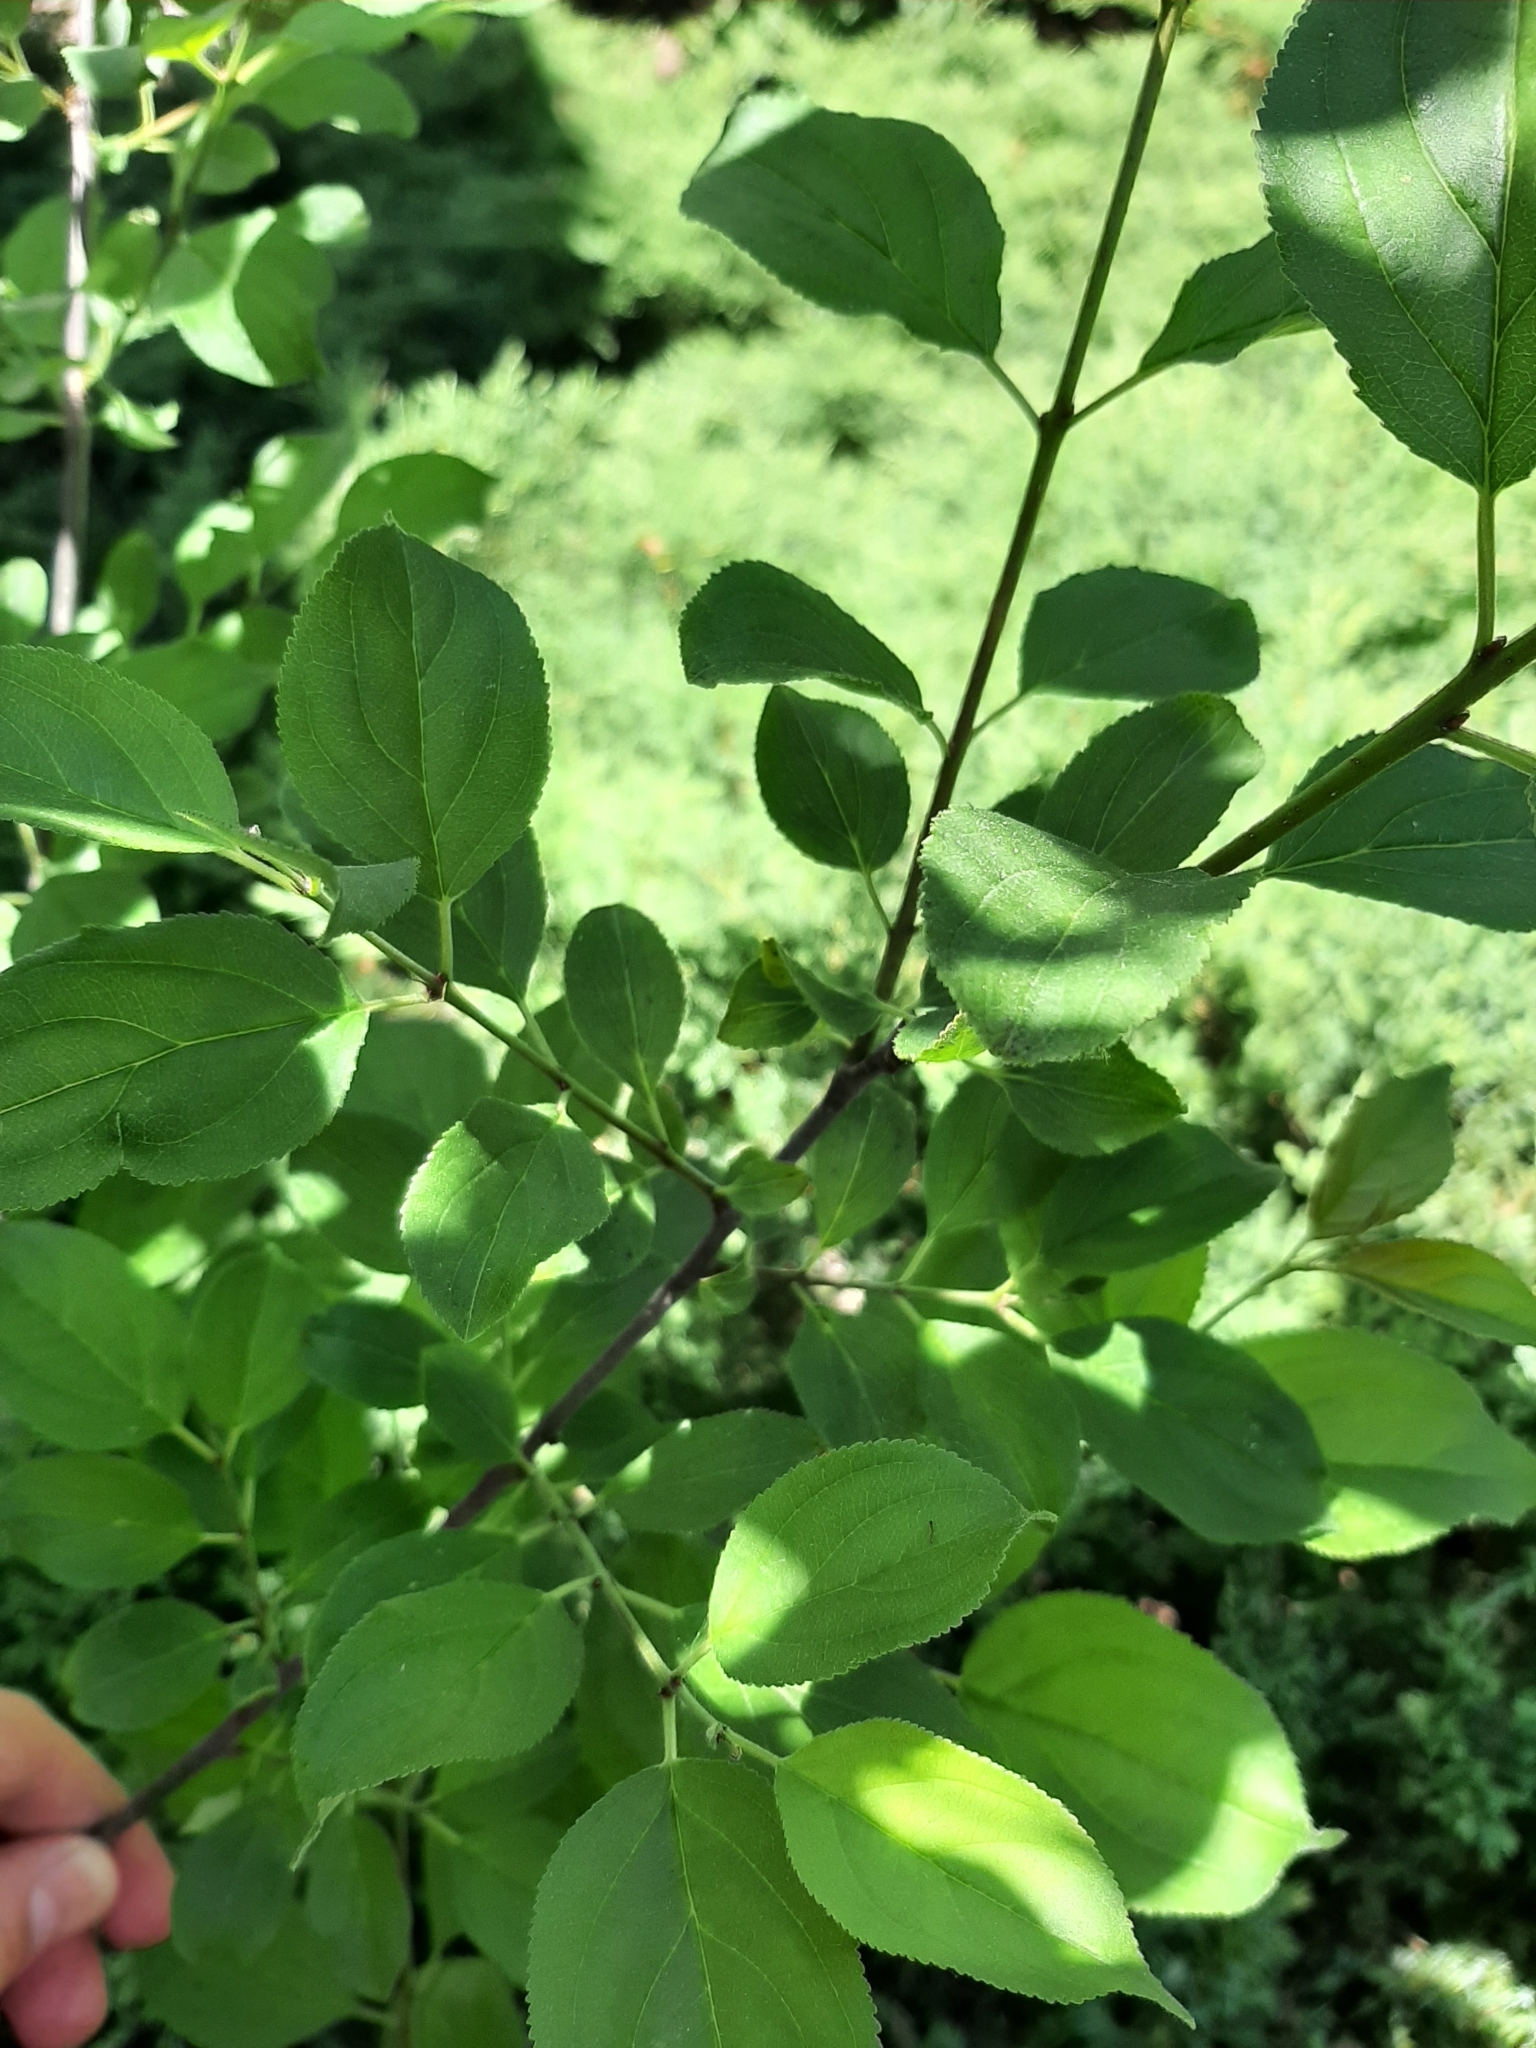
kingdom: Plantae
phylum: Tracheophyta
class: Magnoliopsida
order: Rosales
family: Rhamnaceae
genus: Rhamnus
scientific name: Rhamnus cathartica
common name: Common buckthorn
